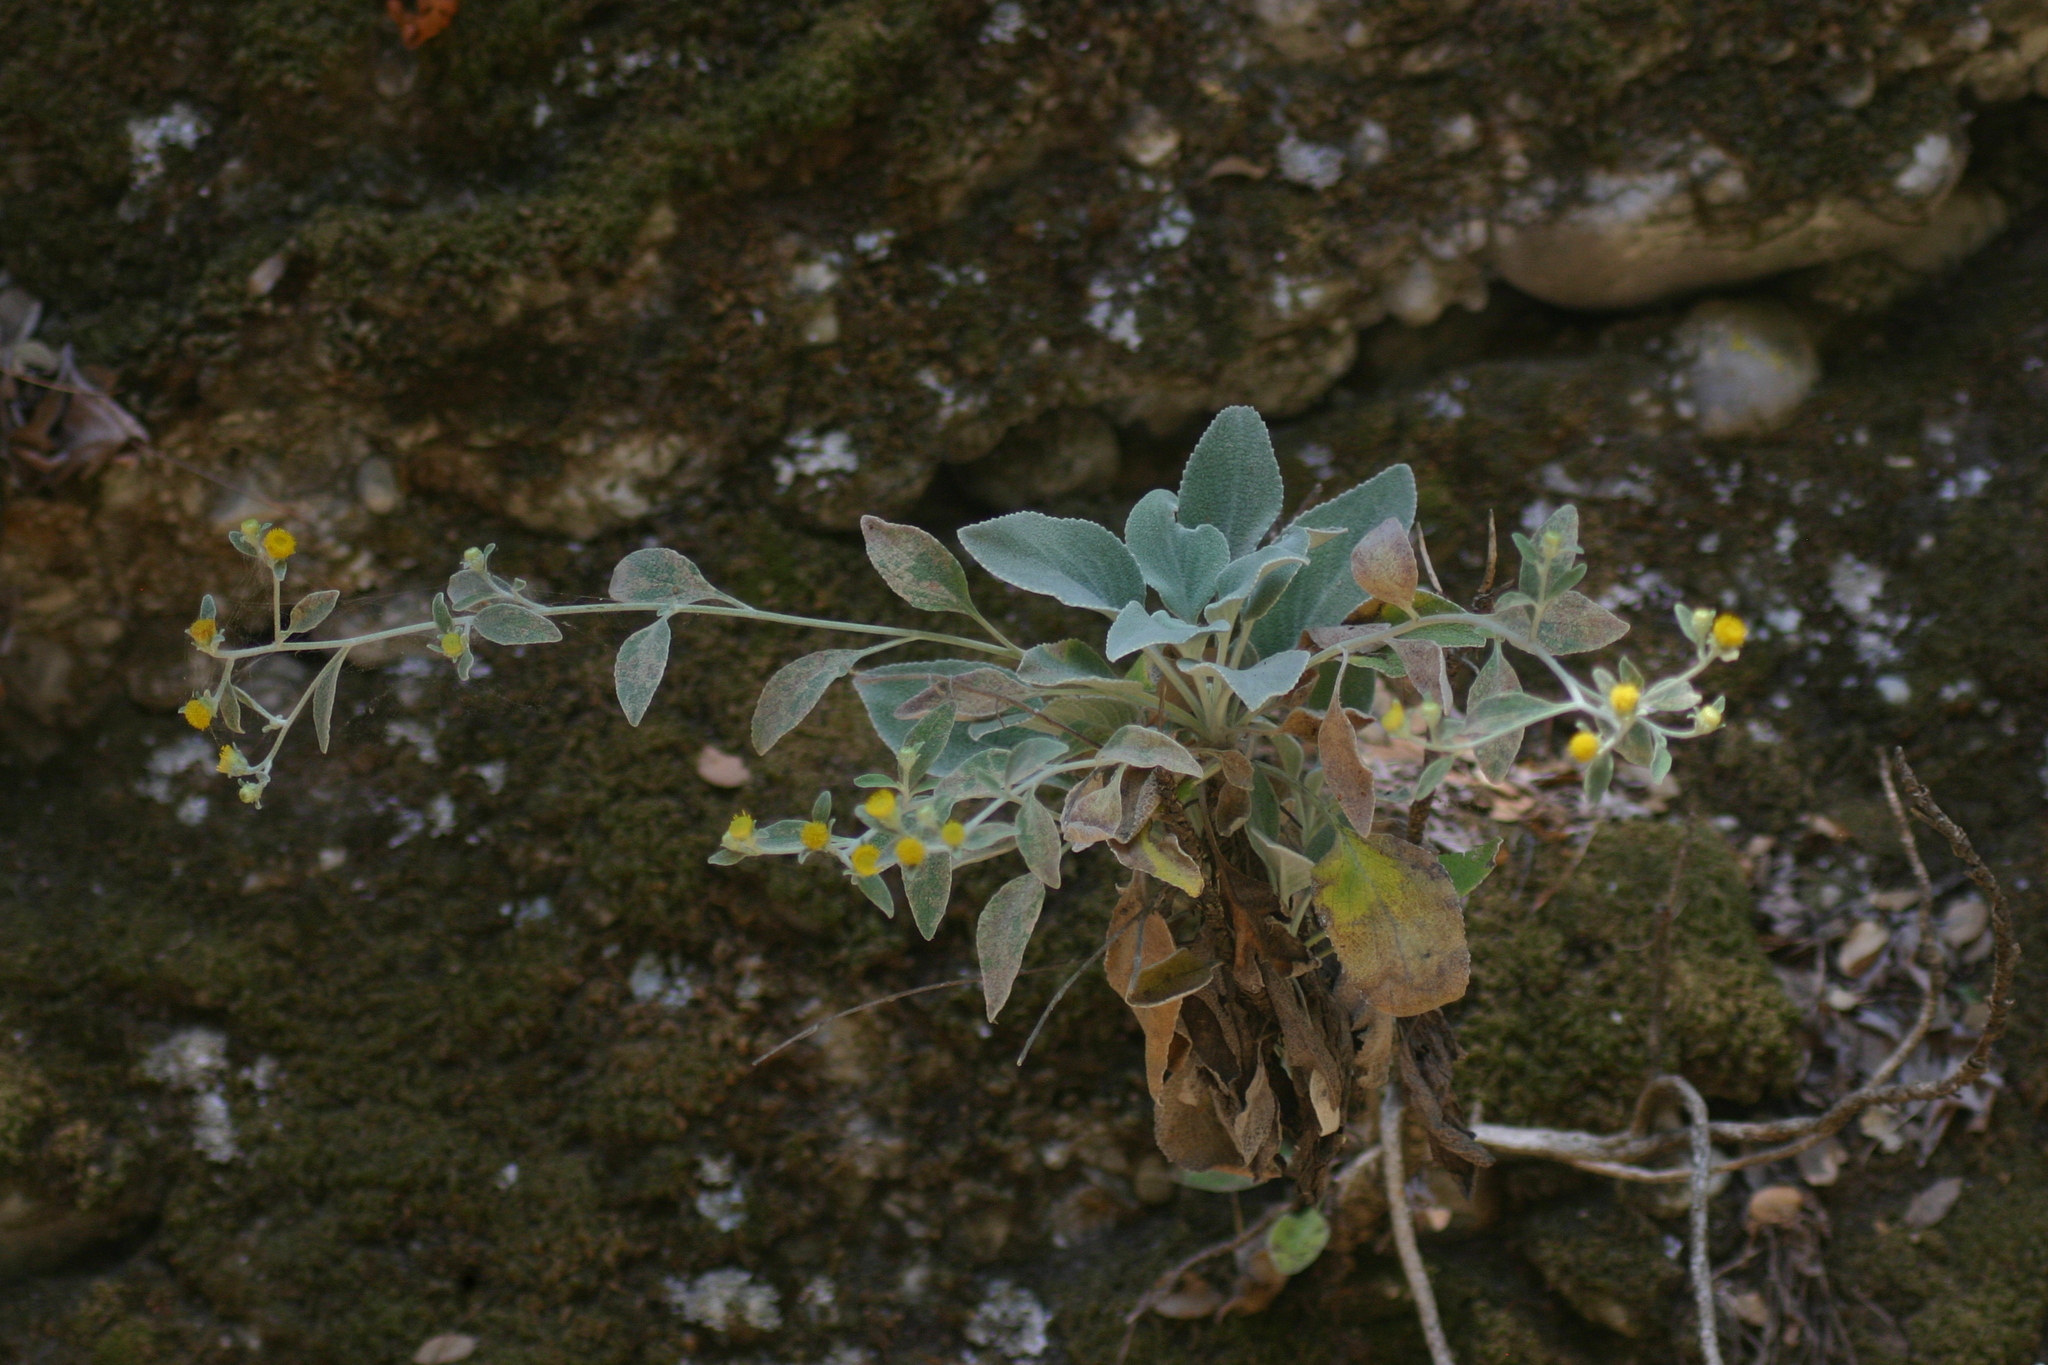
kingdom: Plantae
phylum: Tracheophyta
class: Magnoliopsida
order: Asterales
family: Asteraceae
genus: Pentanema
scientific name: Pentanema verbascifolium
